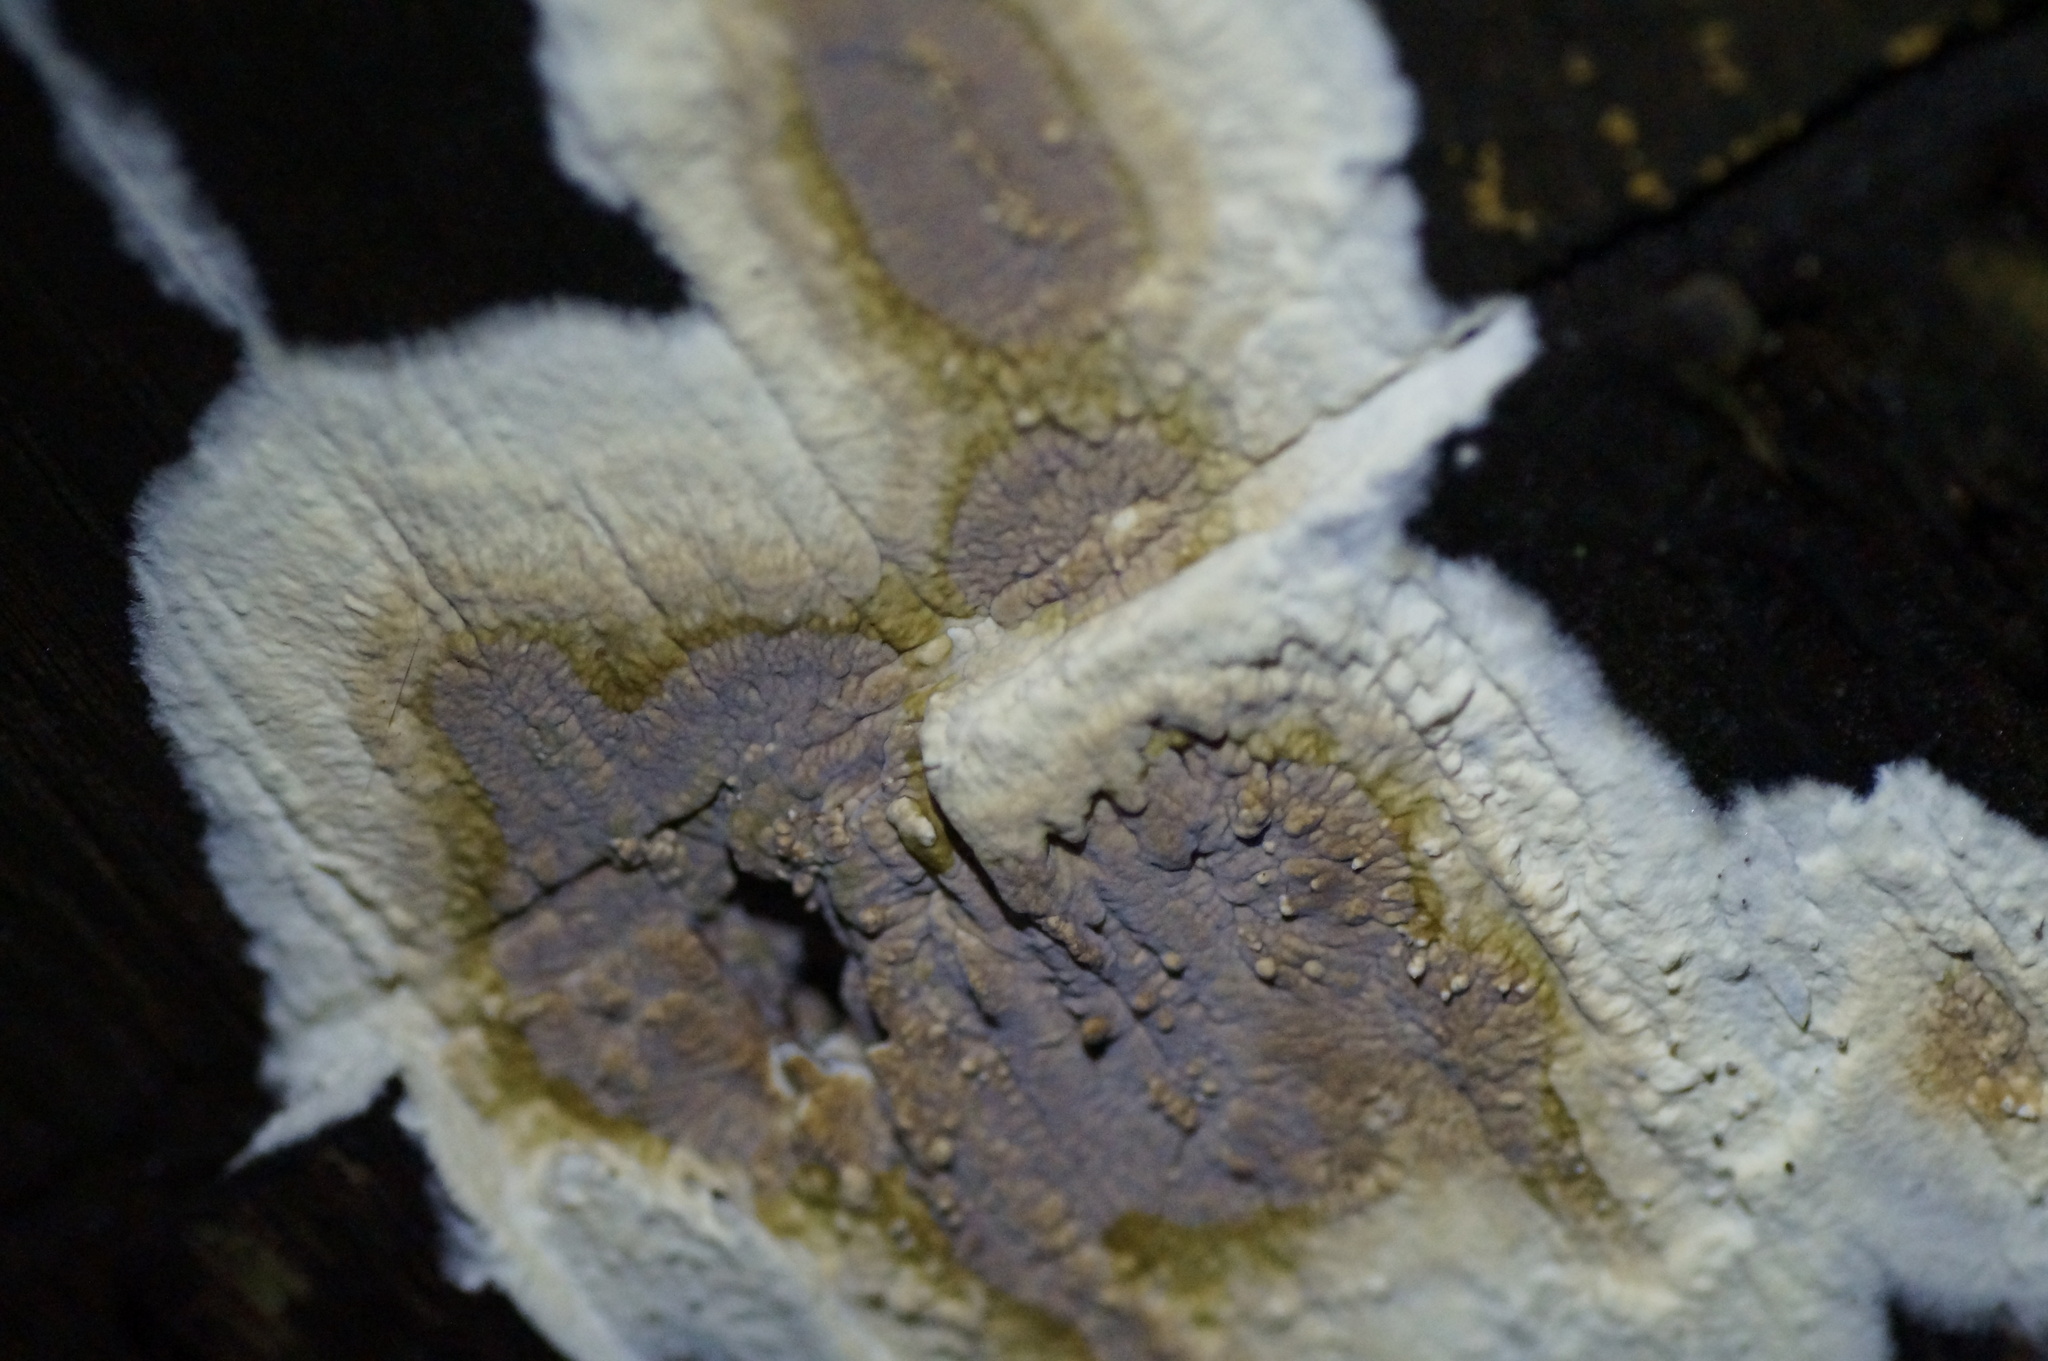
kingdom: Fungi
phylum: Basidiomycota
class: Agaricomycetes
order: Boletales
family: Coniophoraceae
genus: Coniophora
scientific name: Coniophora puteana
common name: Cellar fungus
